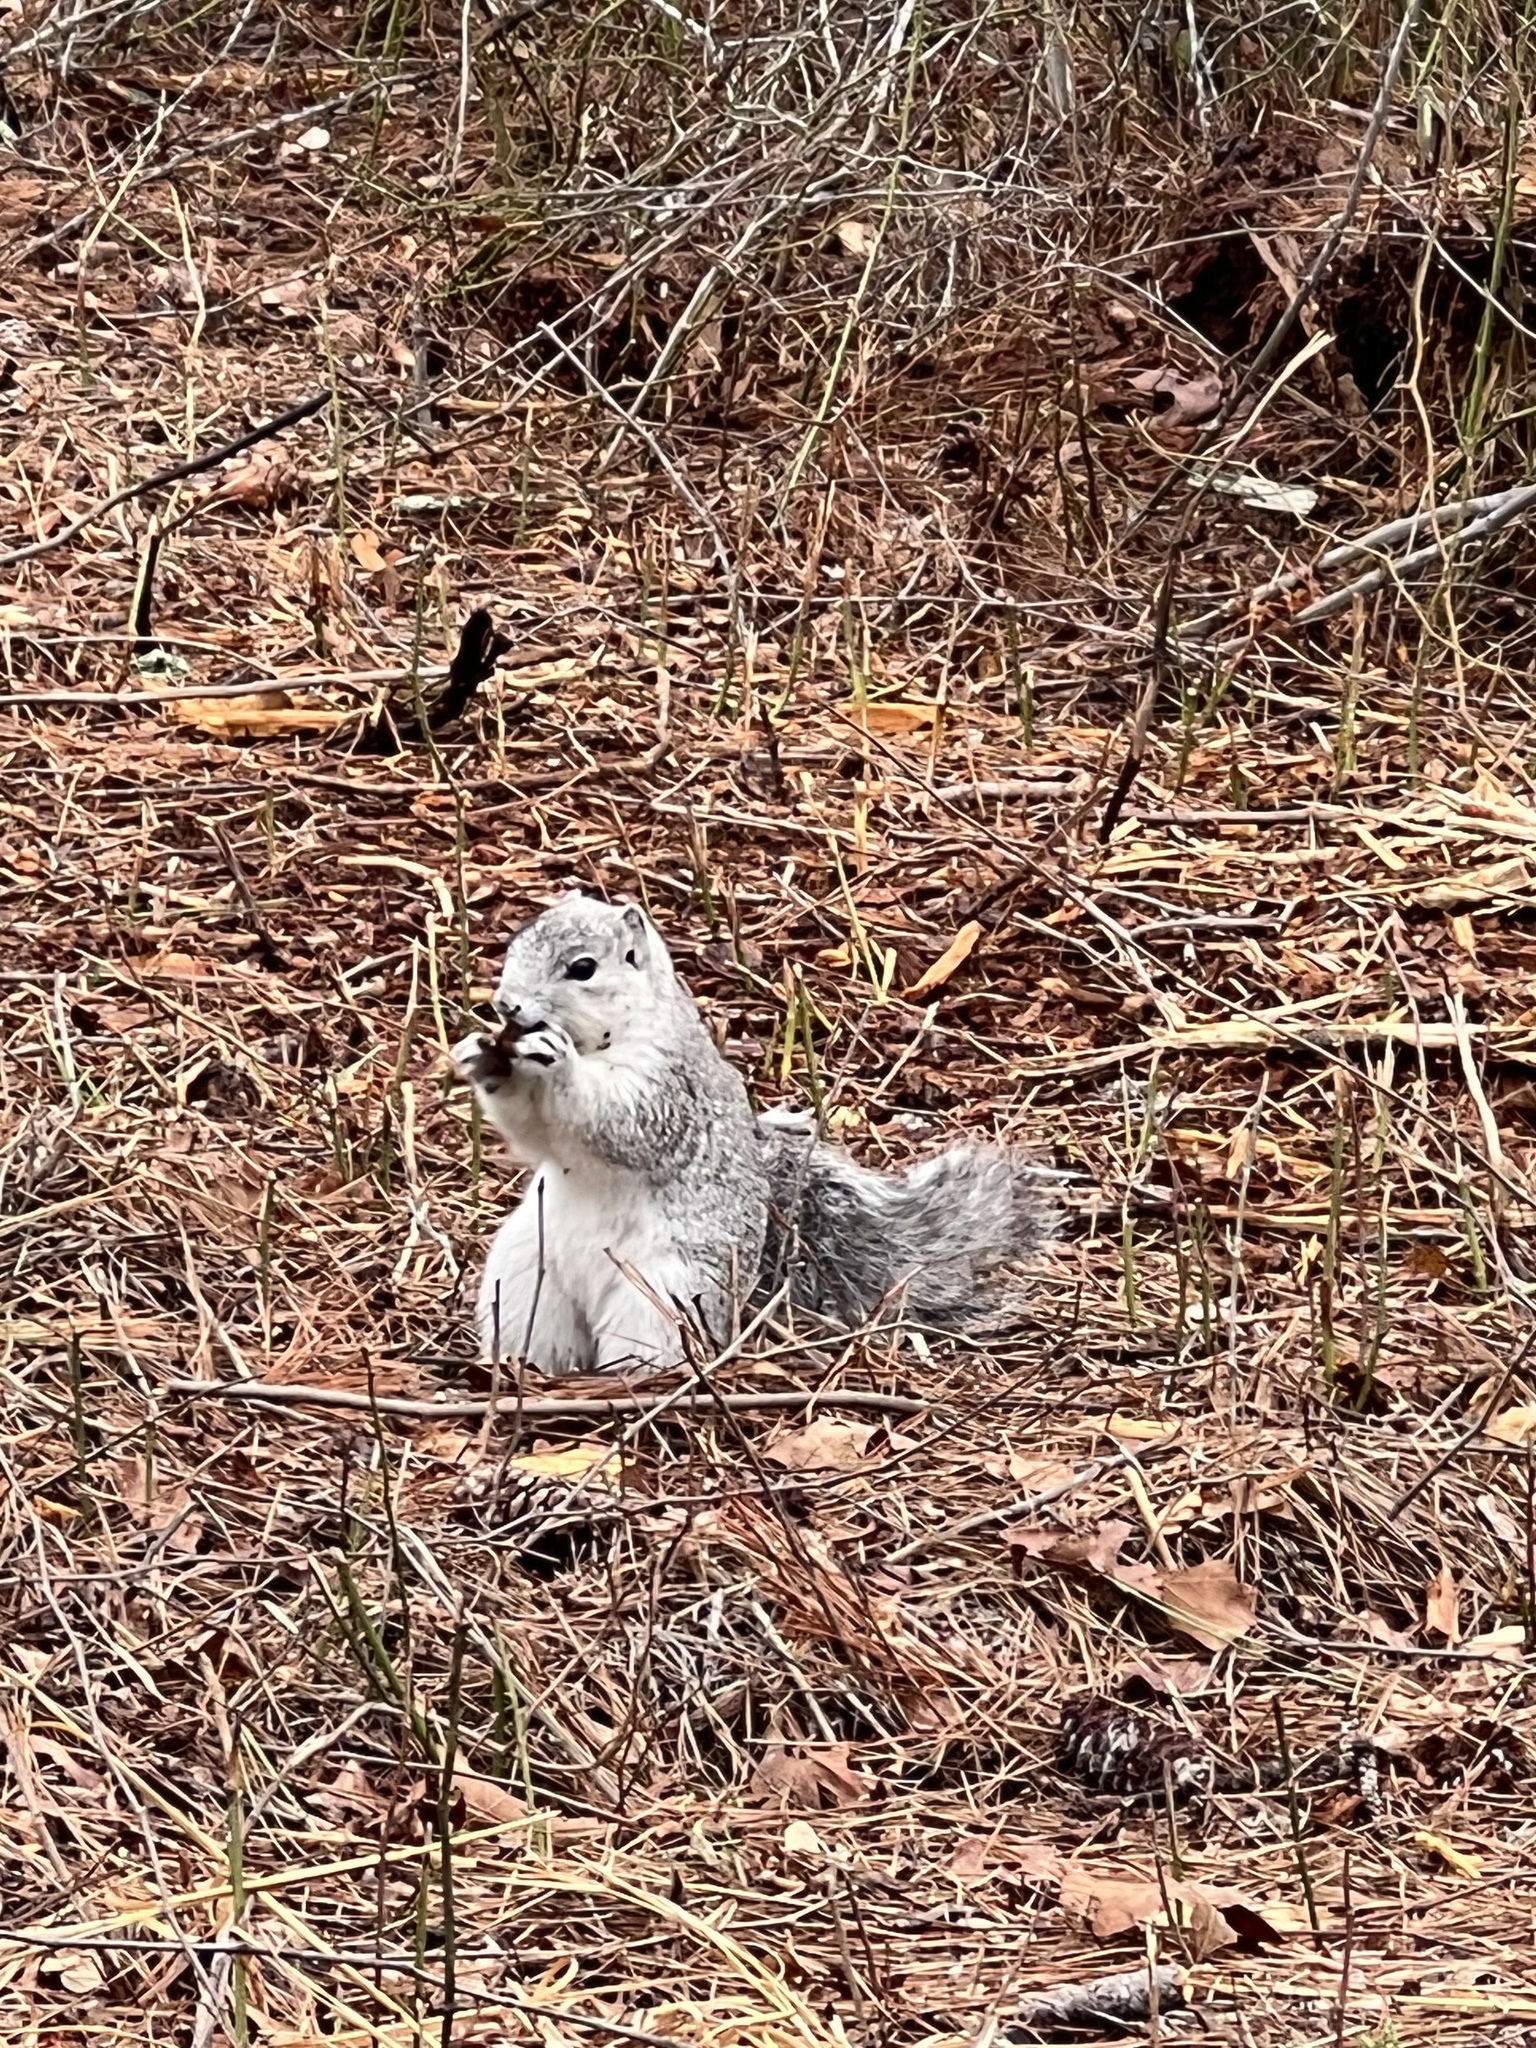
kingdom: Animalia
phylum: Chordata
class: Mammalia
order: Rodentia
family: Sciuridae
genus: Sciurus
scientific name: Sciurus niger
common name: Fox squirrel
